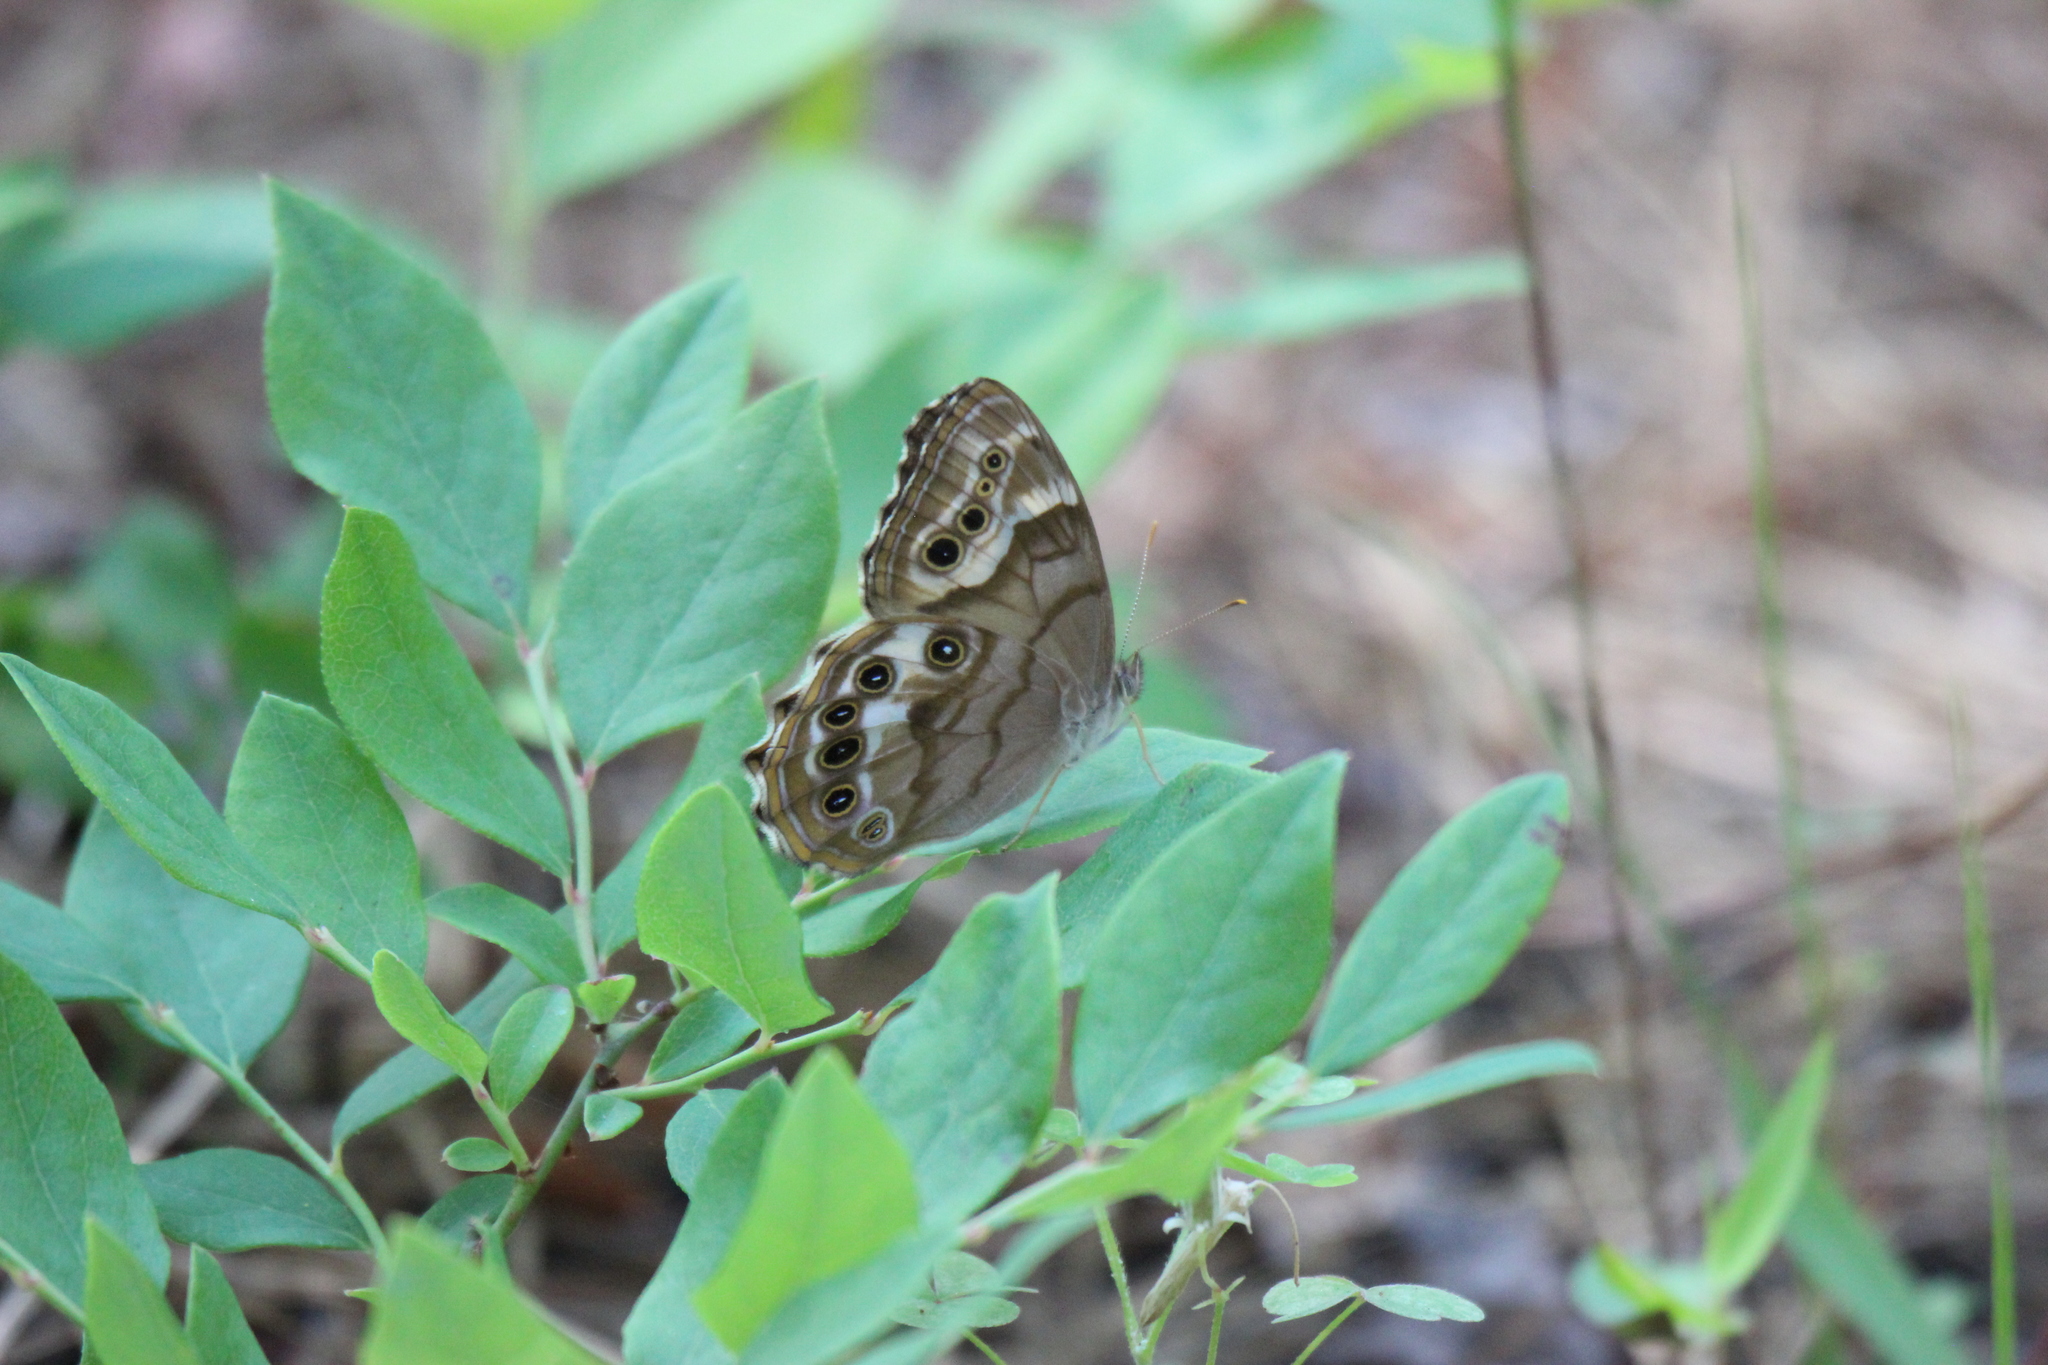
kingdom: Animalia
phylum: Arthropoda
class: Insecta
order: Lepidoptera
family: Nymphalidae
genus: Enodia
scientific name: Enodia portlandia
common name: Southern pearly-eye
